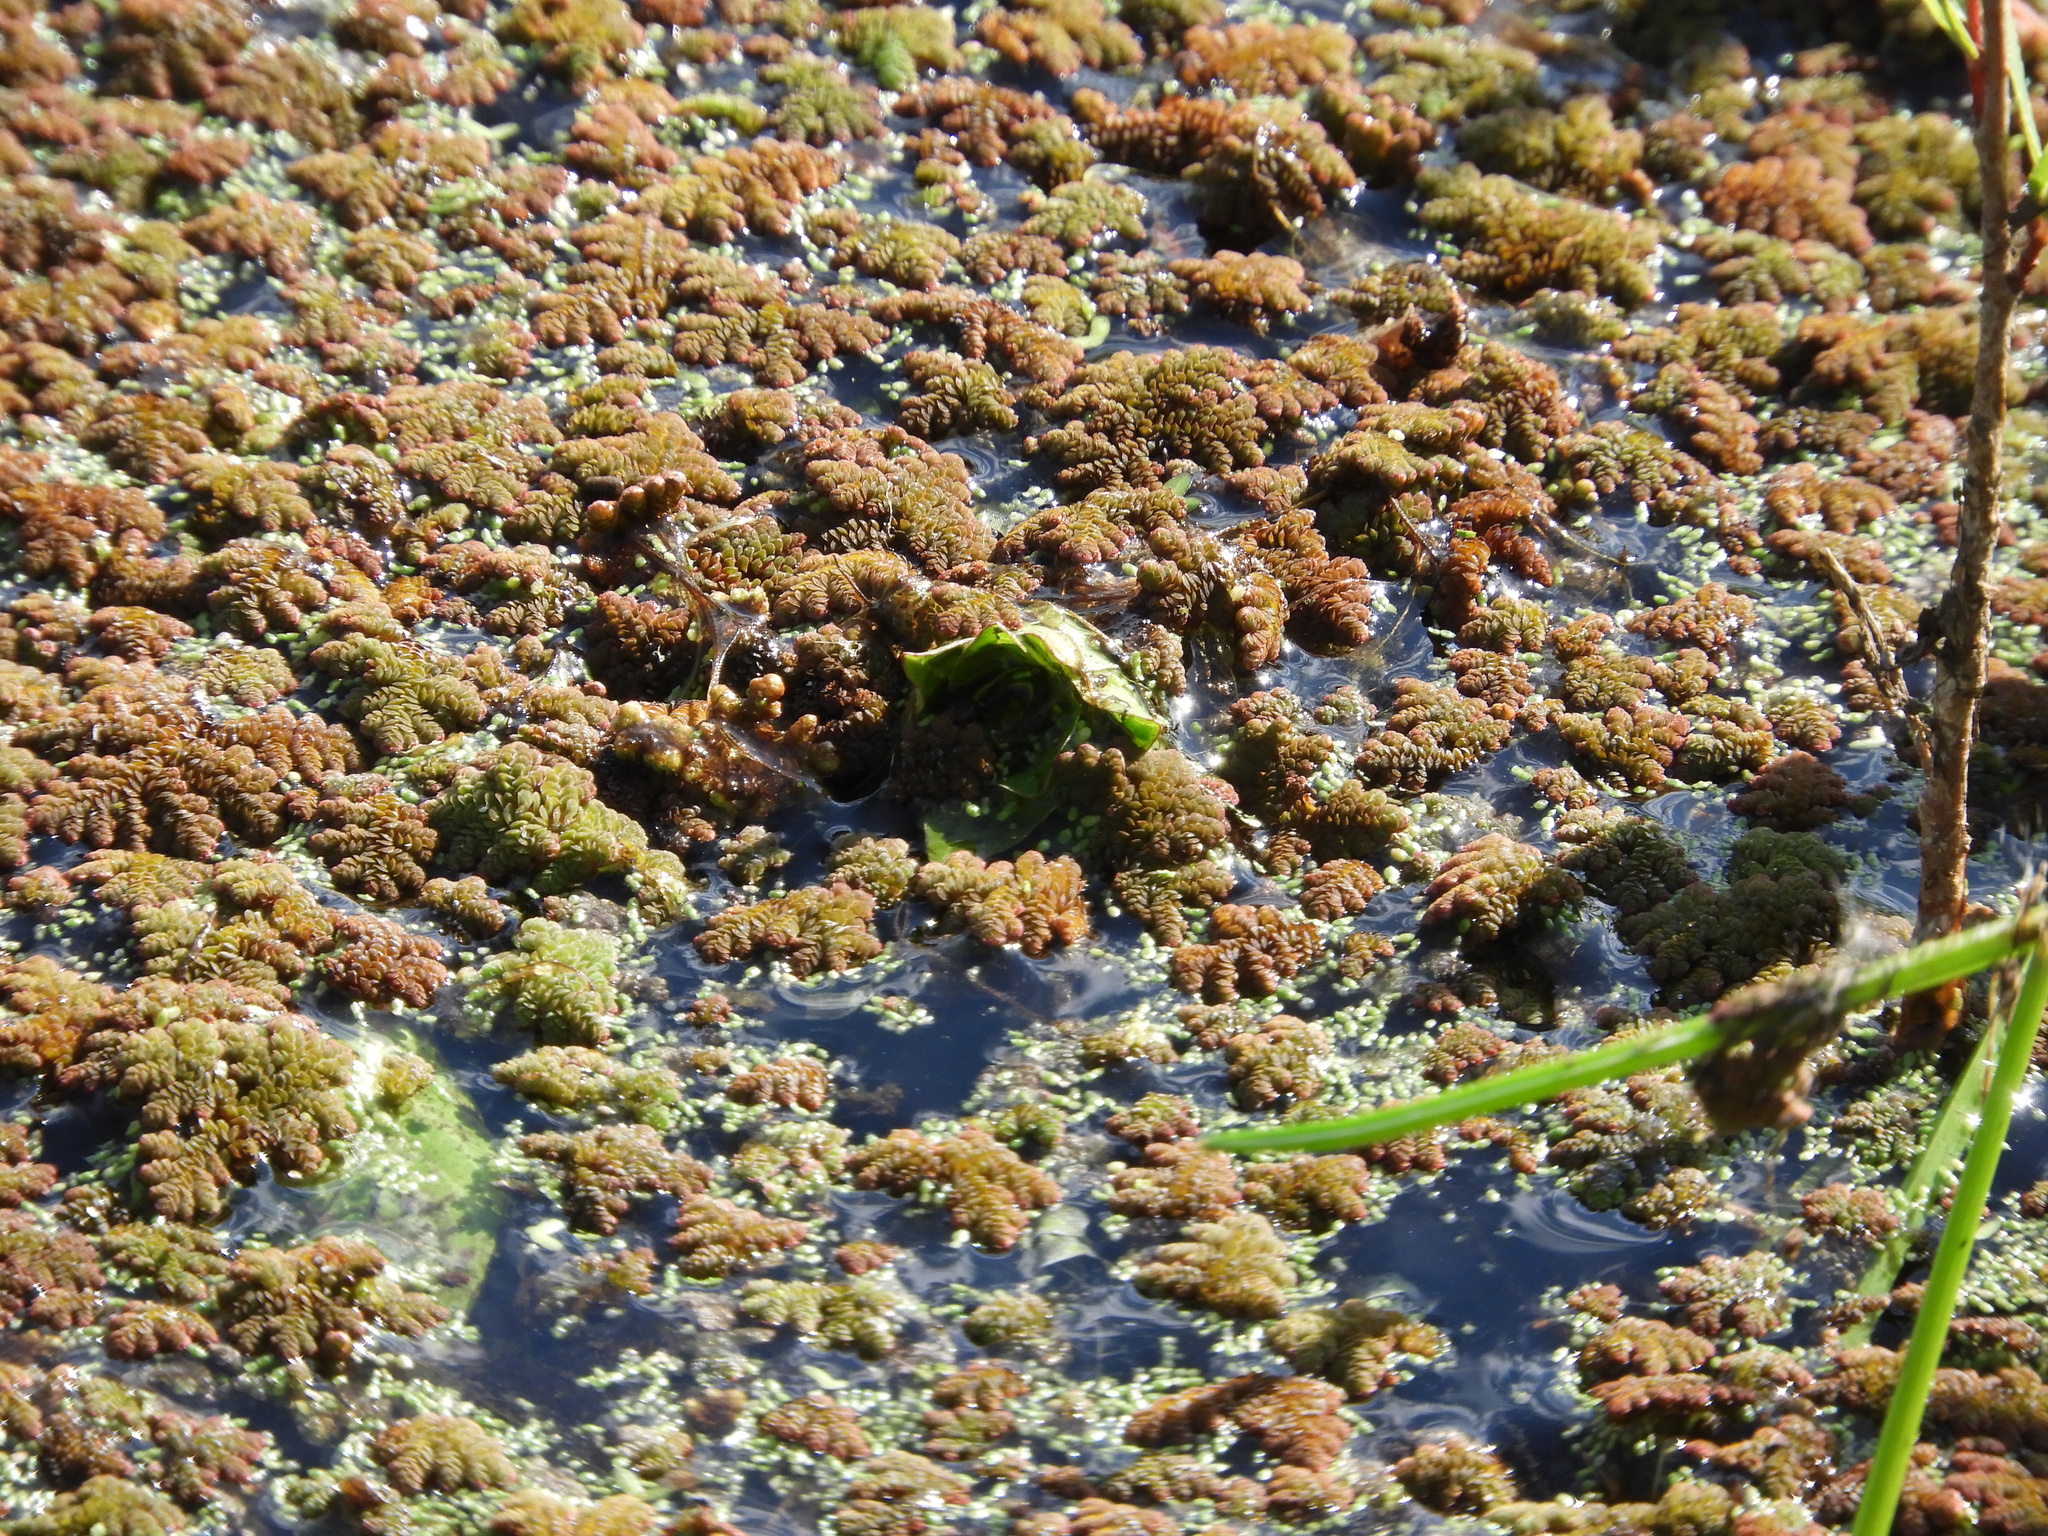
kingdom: Plantae
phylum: Tracheophyta
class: Polypodiopsida
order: Salviniales
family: Salviniaceae
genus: Azolla
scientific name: Azolla filiculoides
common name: Water fern
